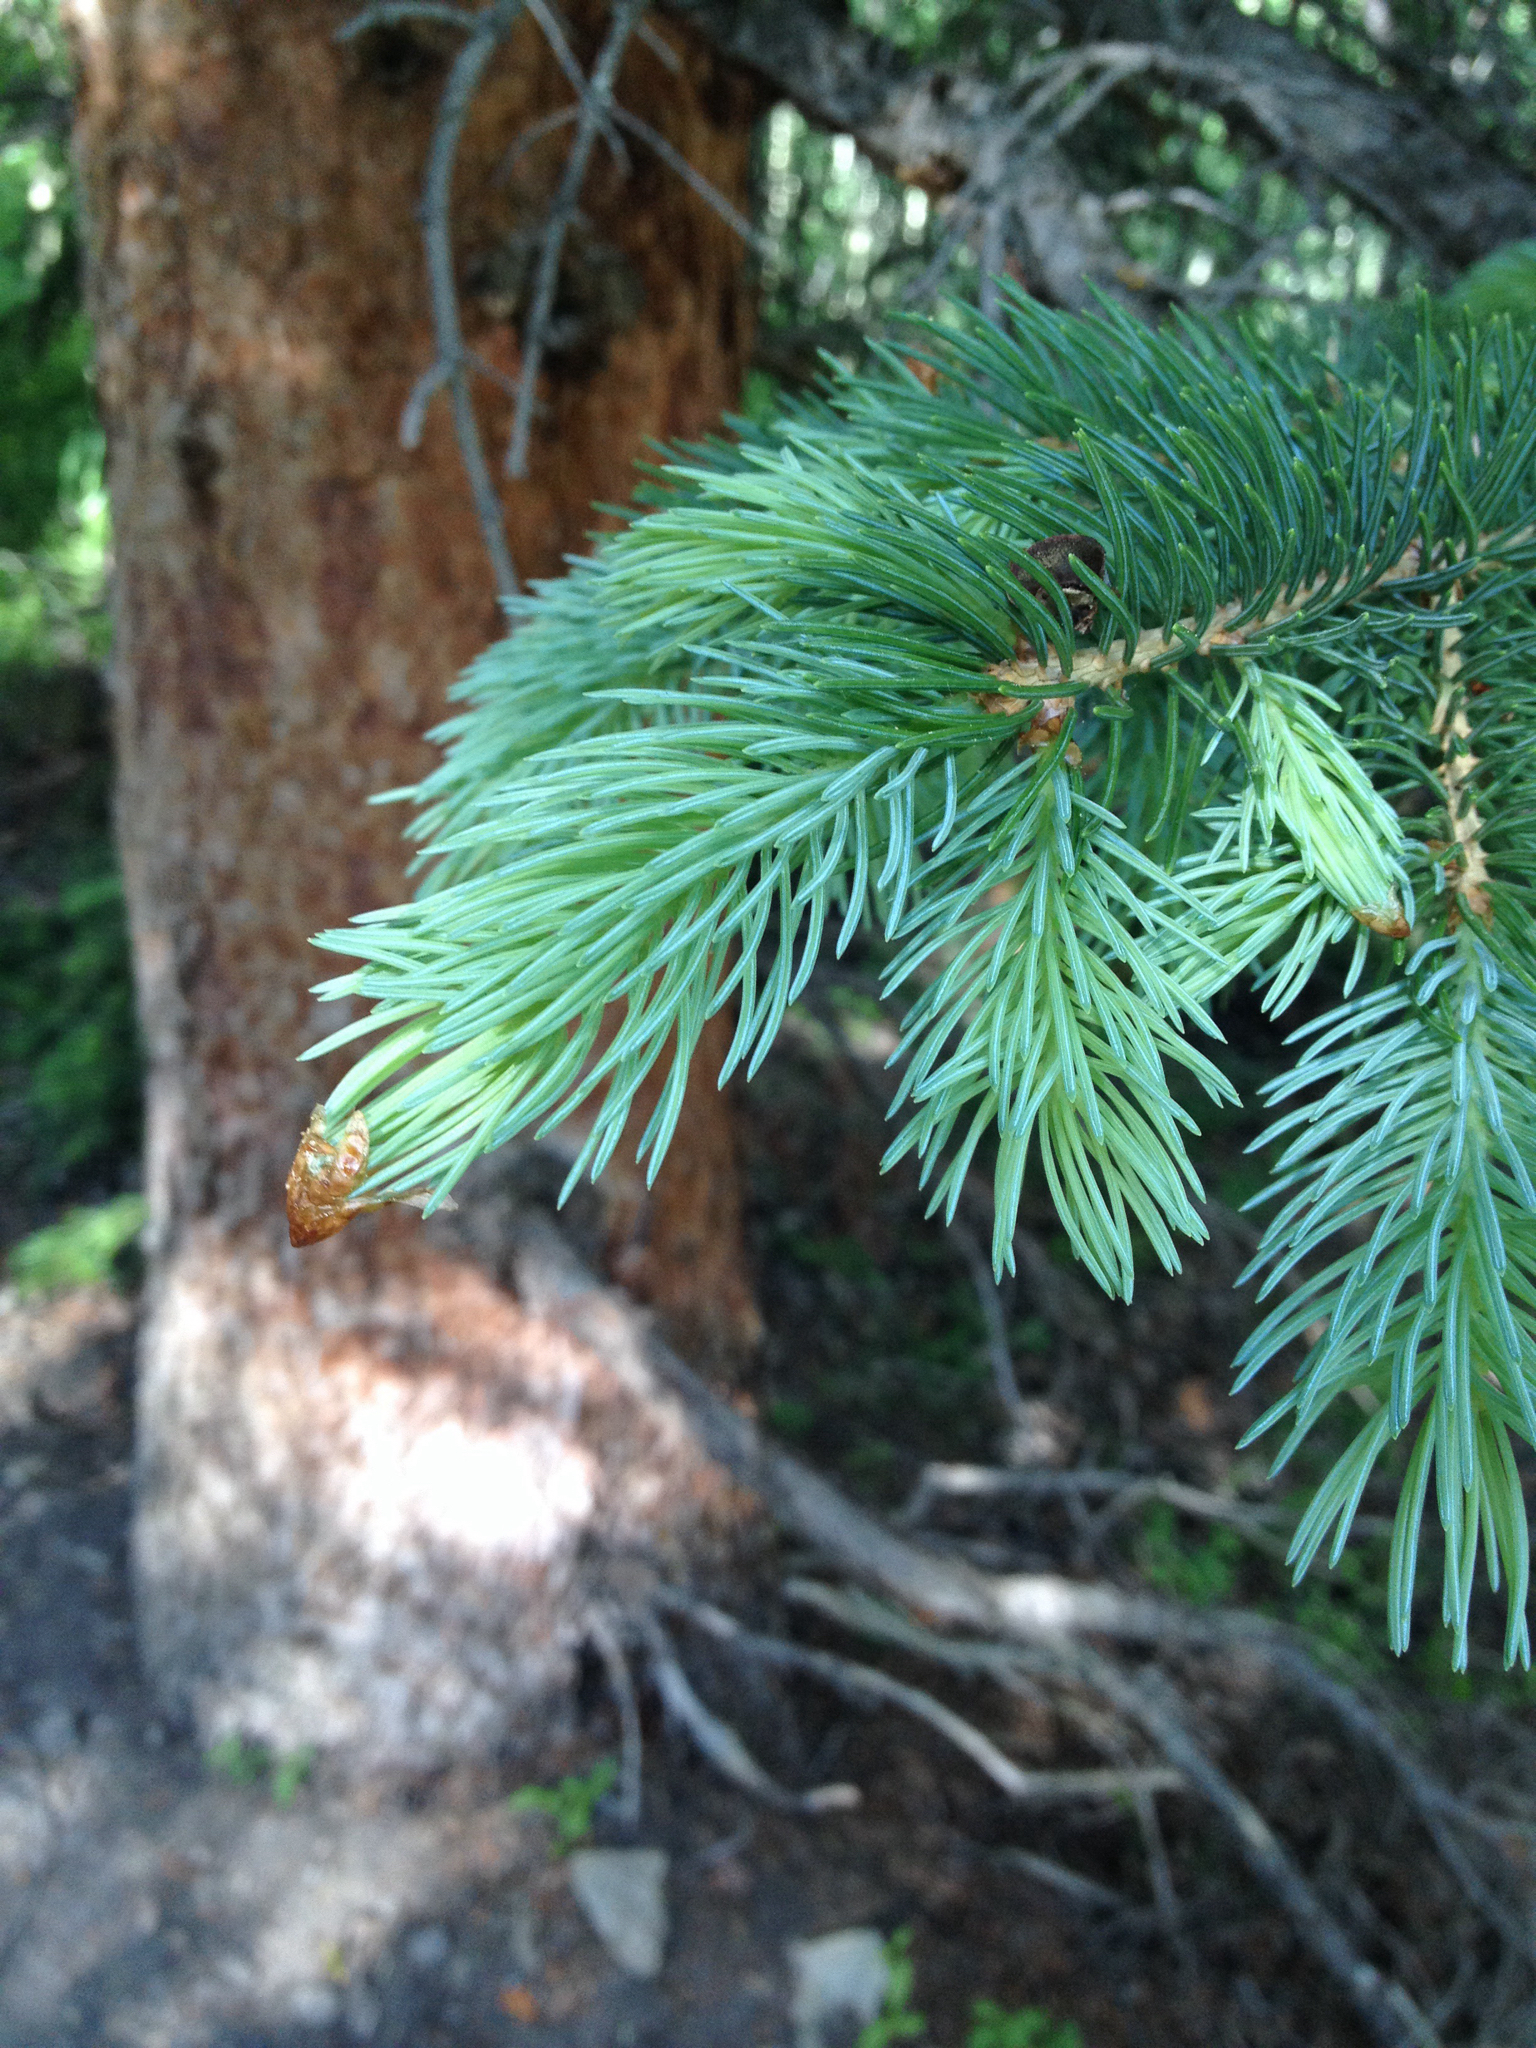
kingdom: Plantae
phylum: Tracheophyta
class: Pinopsida
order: Pinales
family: Pinaceae
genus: Picea
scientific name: Picea engelmannii
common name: Engelmann spruce
